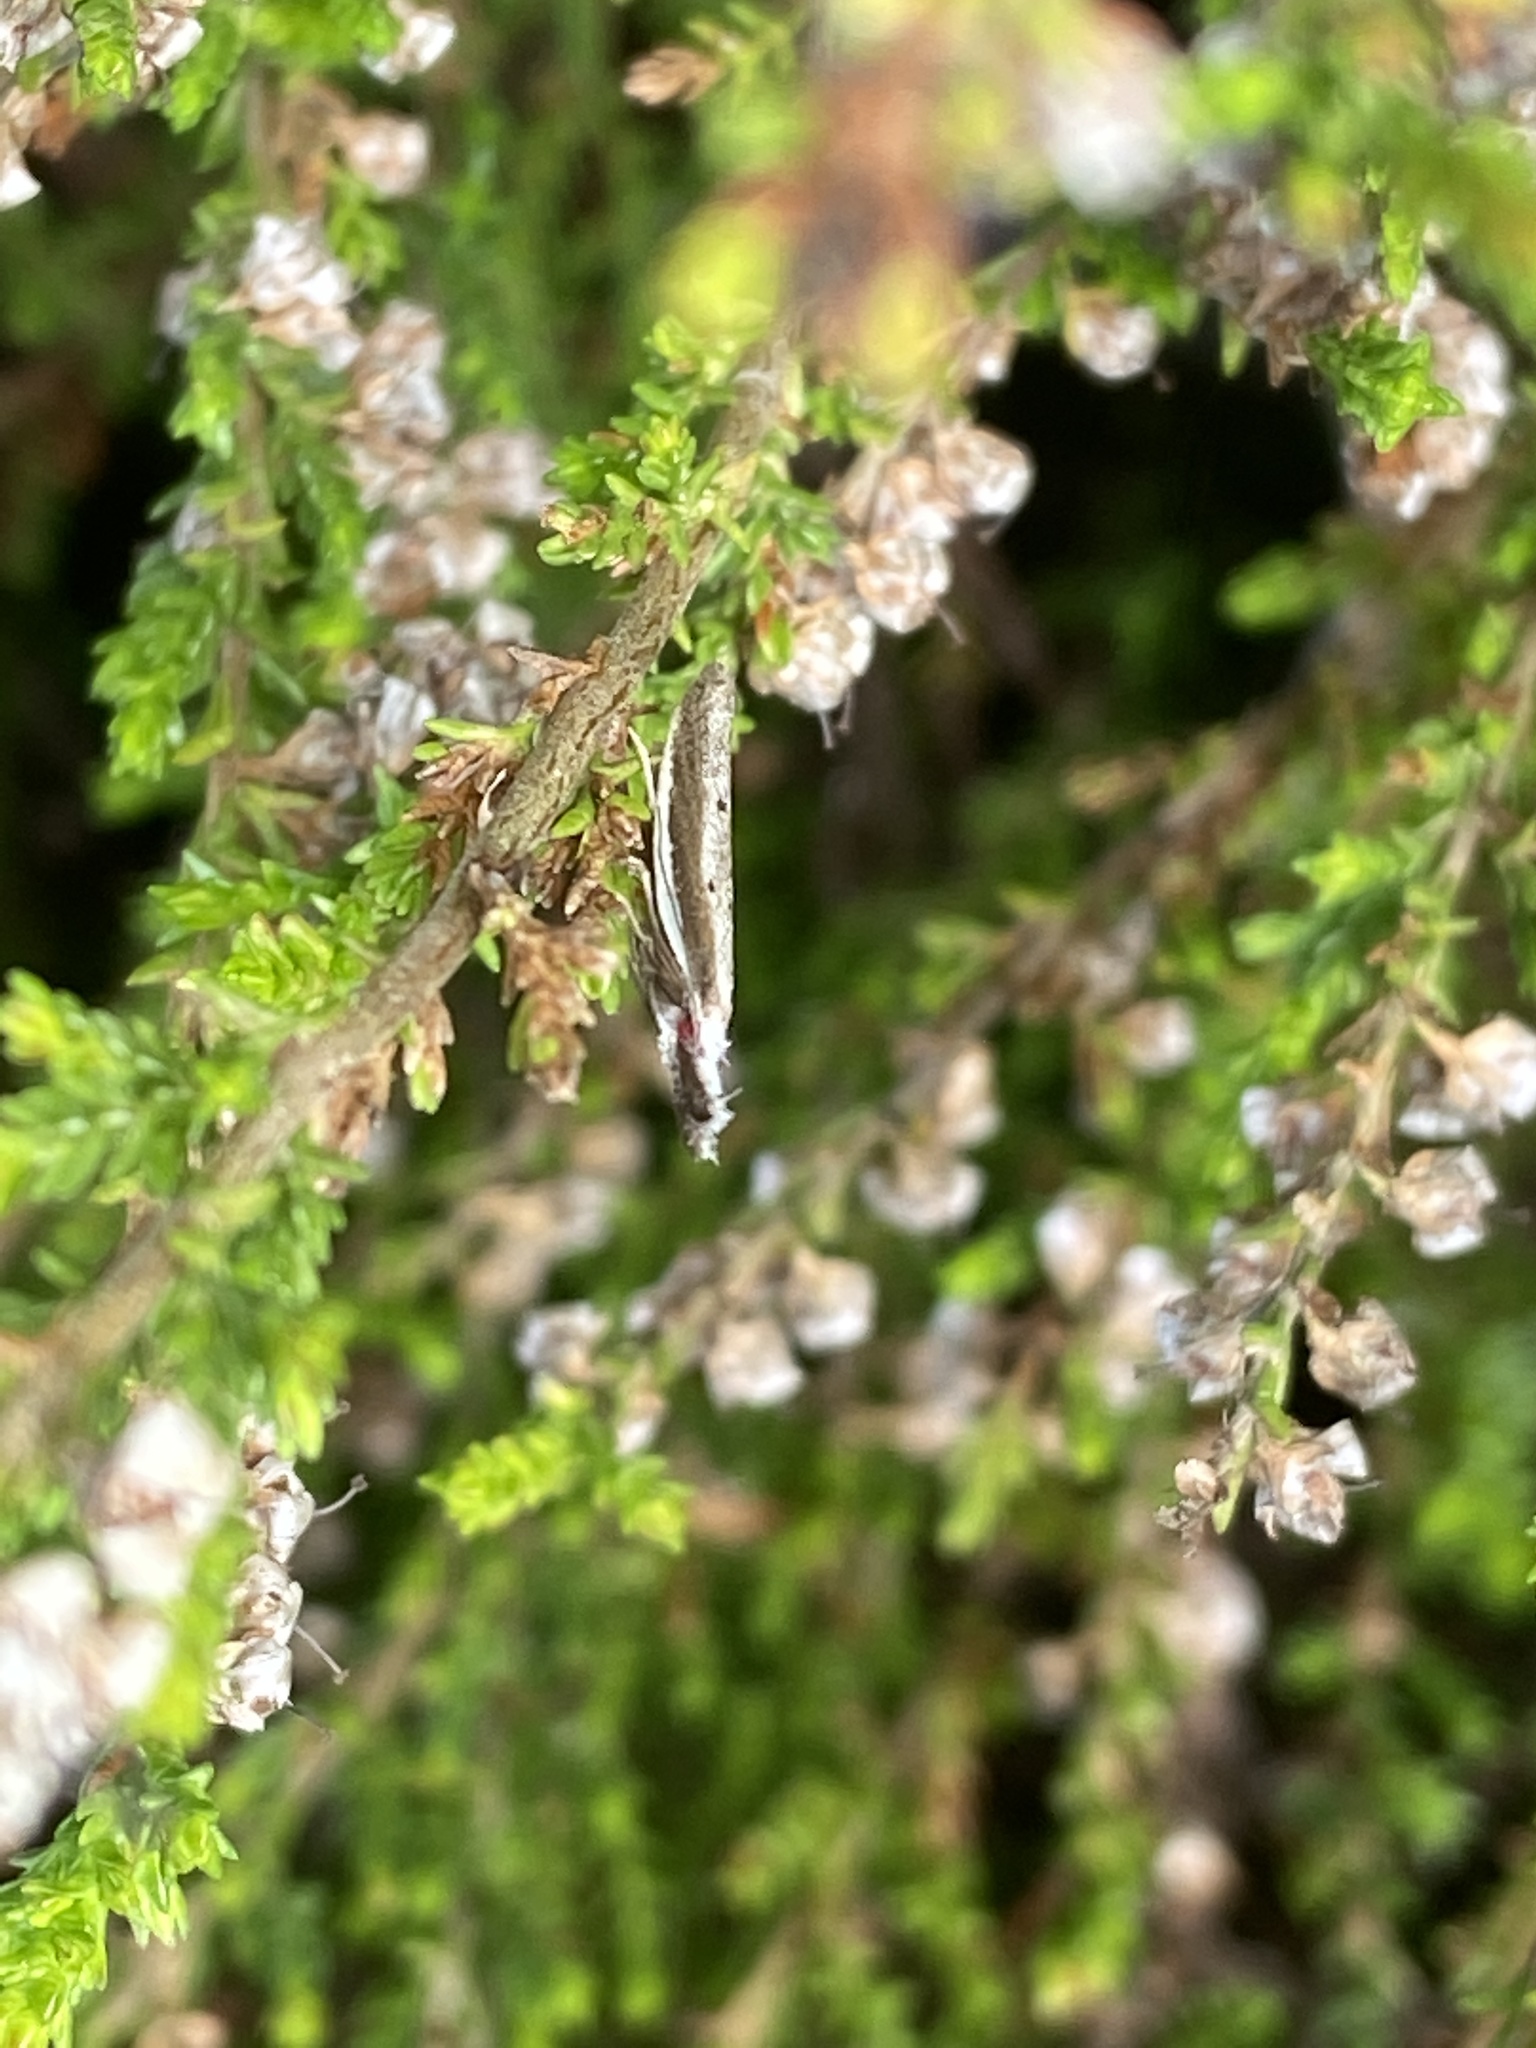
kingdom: Animalia
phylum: Arthropoda
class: Insecta
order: Lepidoptera
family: Oecophoridae
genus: Pleurota
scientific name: Pleurota bicostella
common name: Light streak
